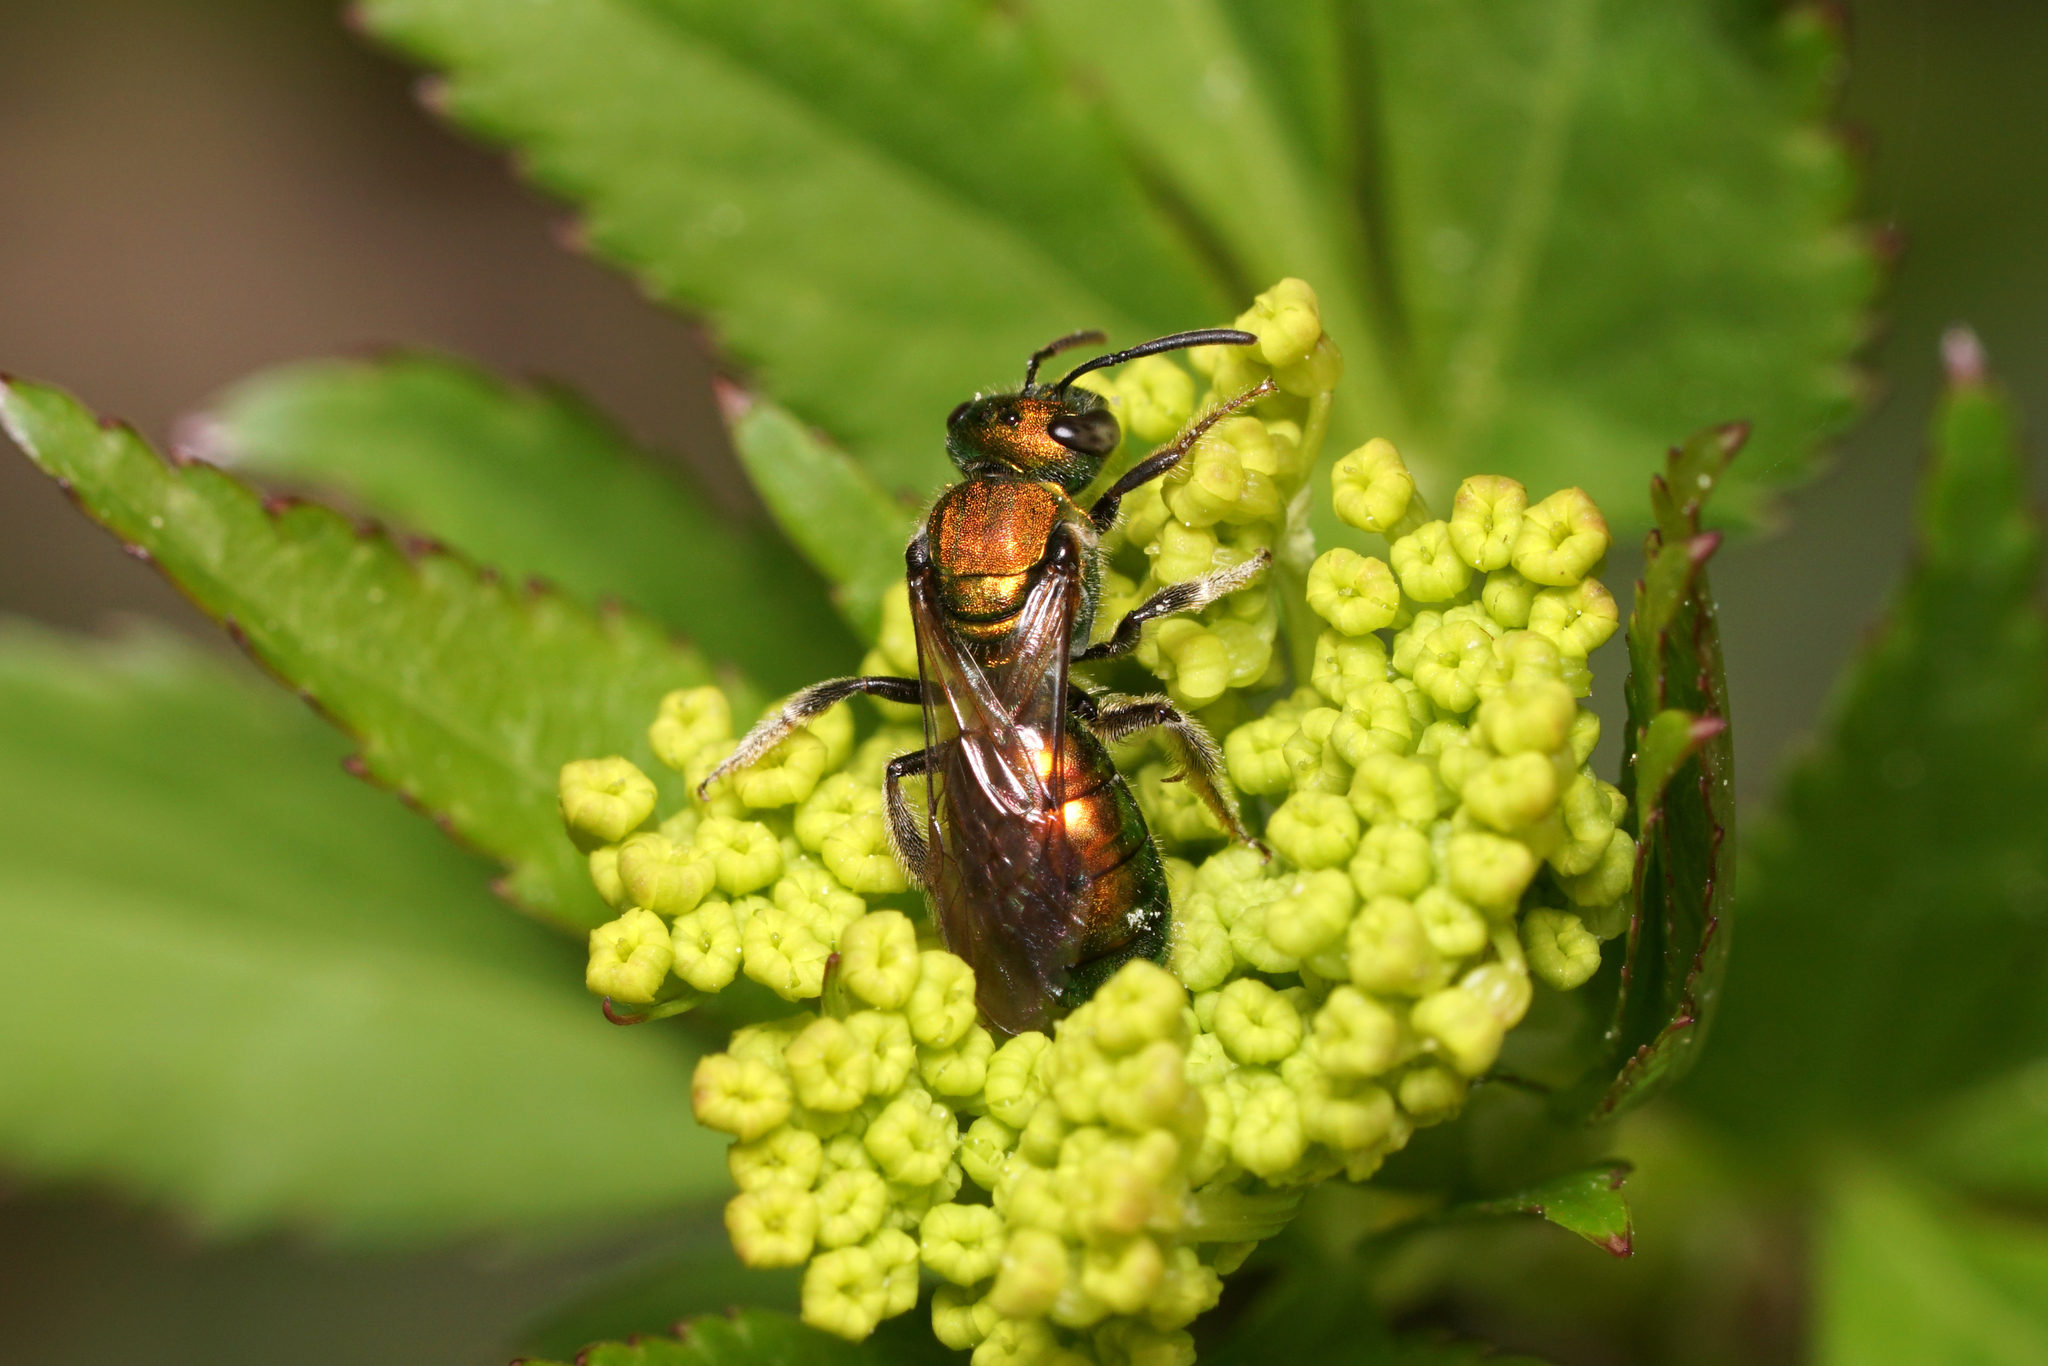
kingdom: Animalia
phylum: Arthropoda
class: Insecta
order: Hymenoptera
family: Halictidae
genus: Augochlora
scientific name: Augochlora pura
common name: Pure green sweat bee
